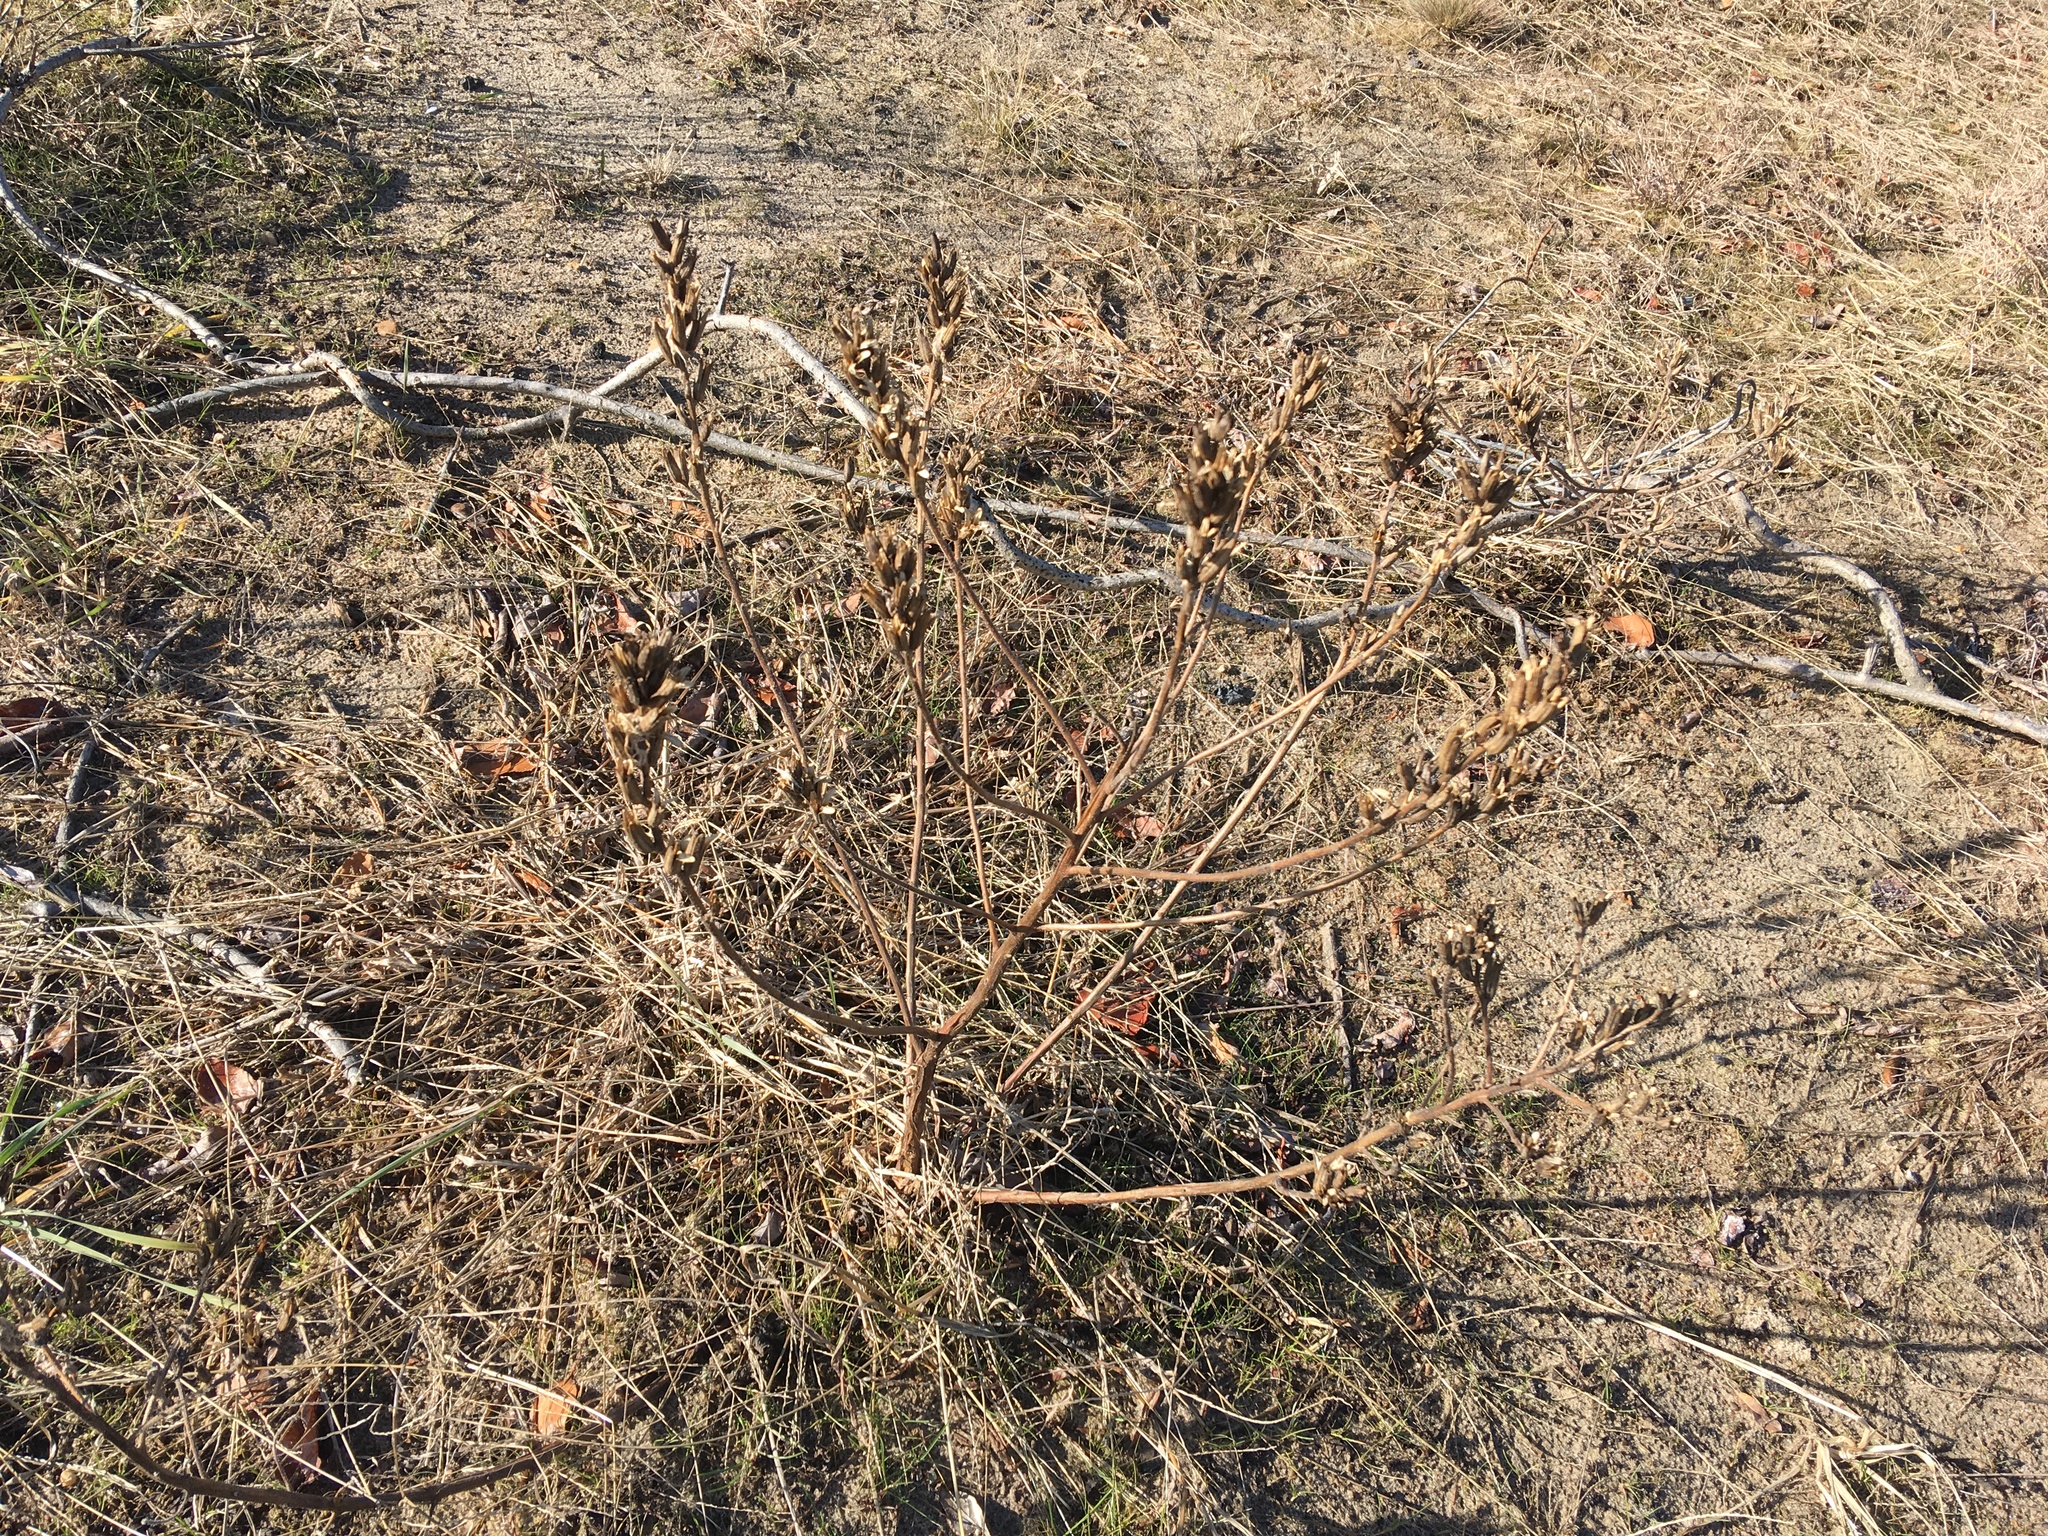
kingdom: Plantae
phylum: Tracheophyta
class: Magnoliopsida
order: Myrtales
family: Onagraceae
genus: Oenothera
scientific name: Oenothera biennis
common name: Common evening-primrose
